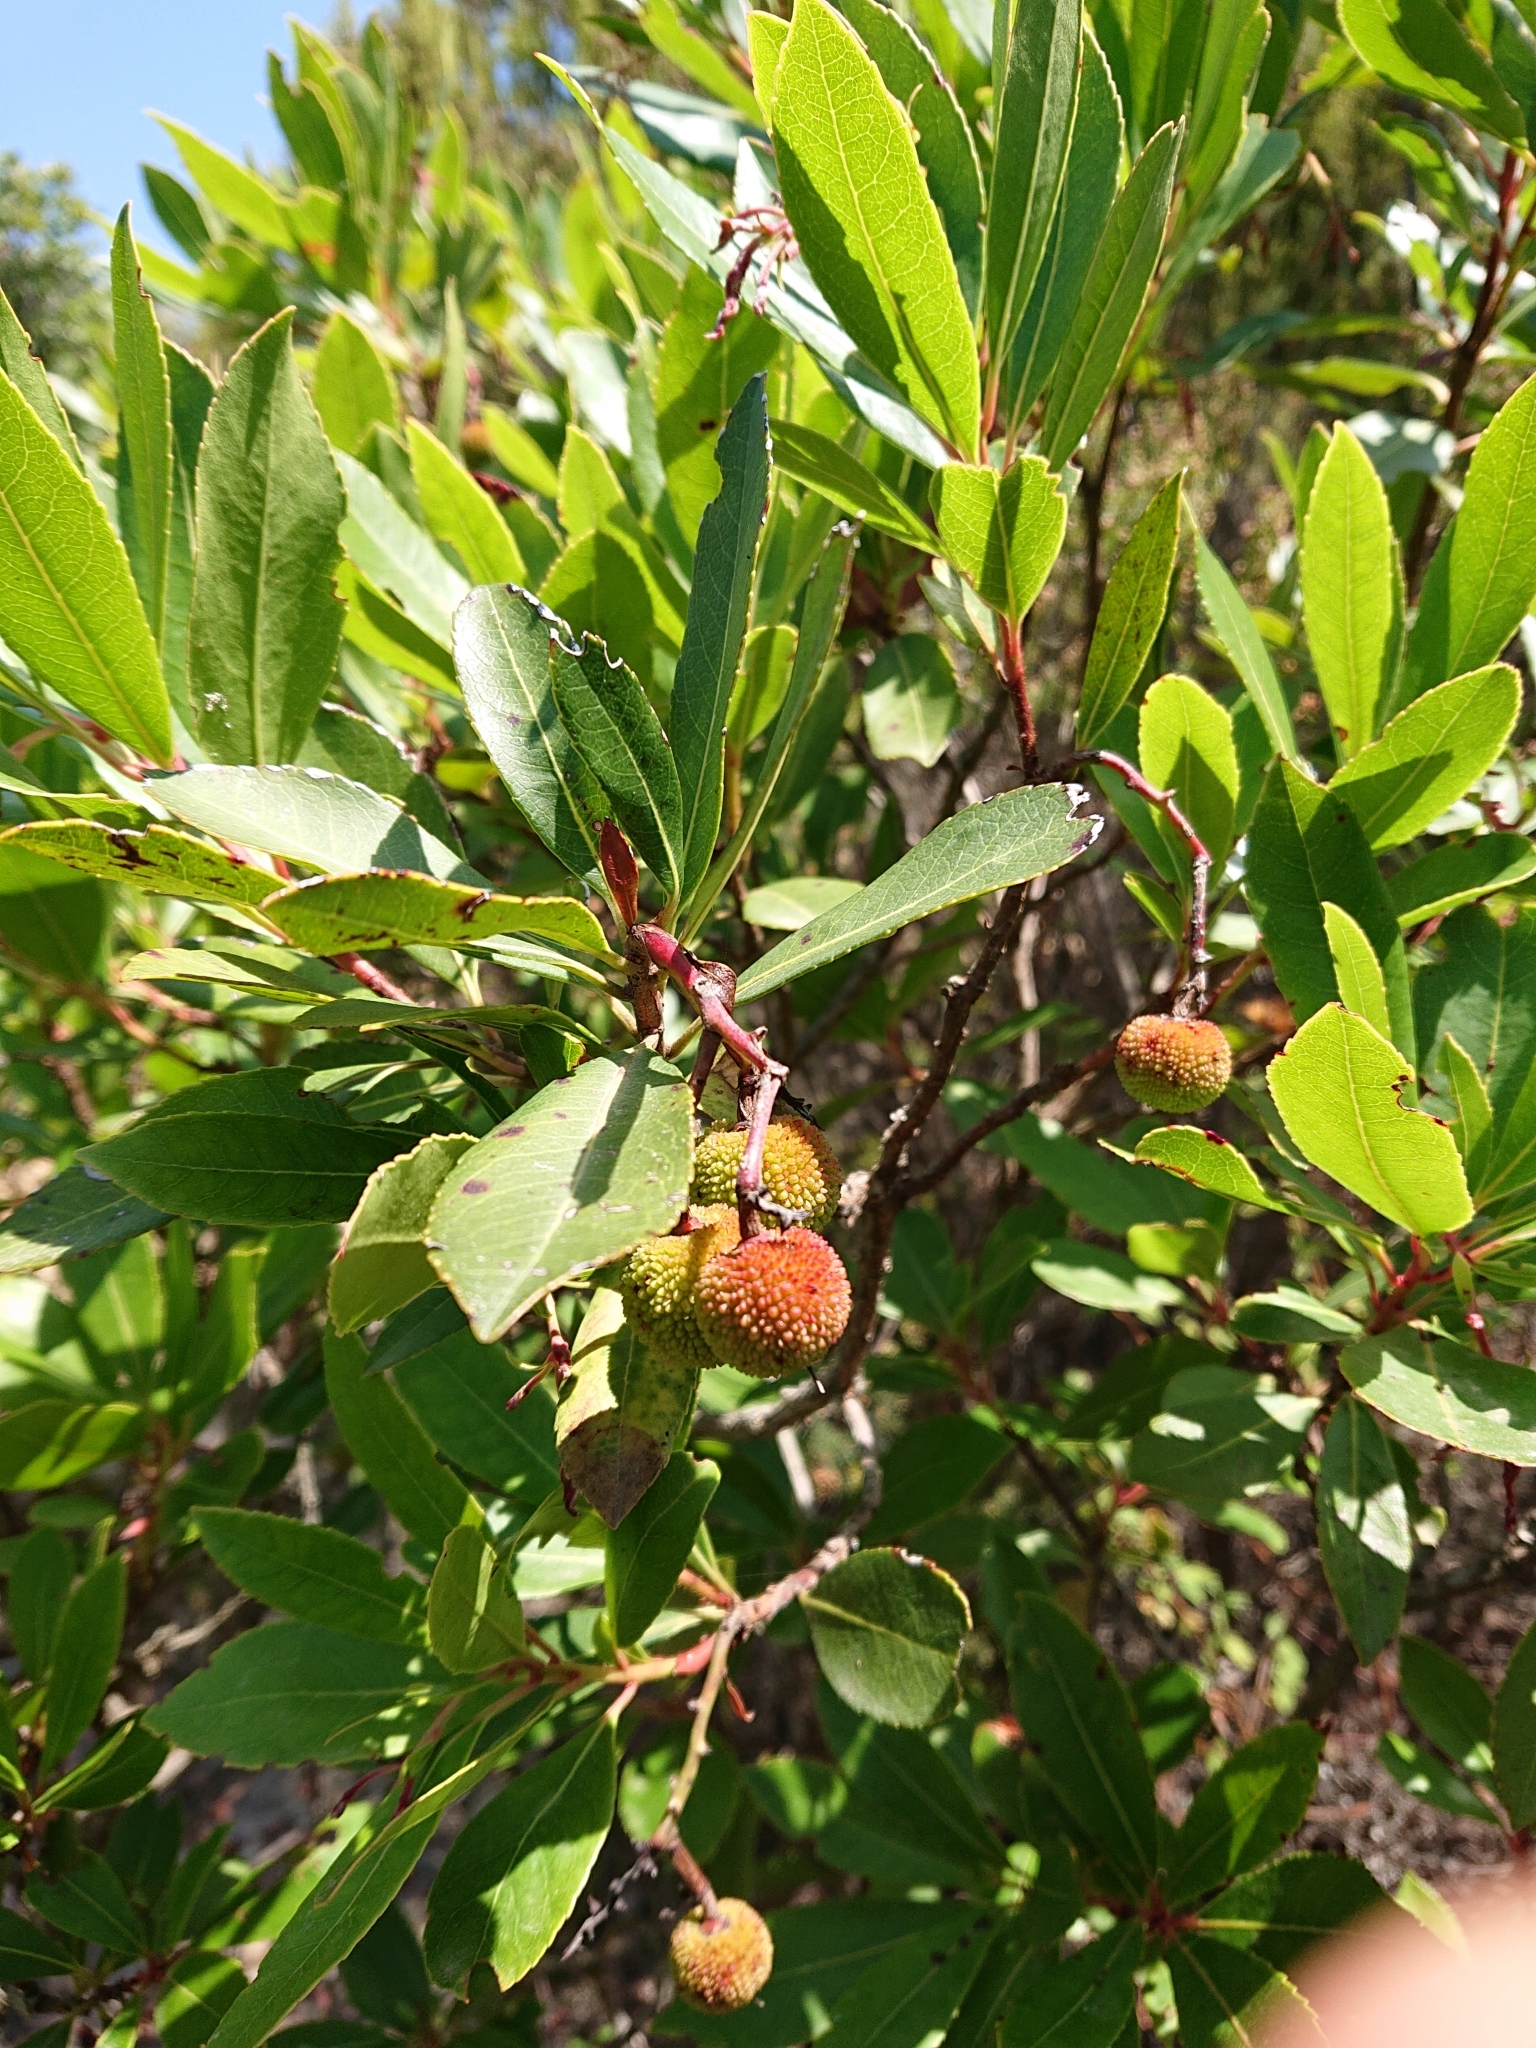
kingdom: Plantae
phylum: Tracheophyta
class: Magnoliopsida
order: Ericales
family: Ericaceae
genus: Arbutus
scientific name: Arbutus unedo
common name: Strawberry-tree
